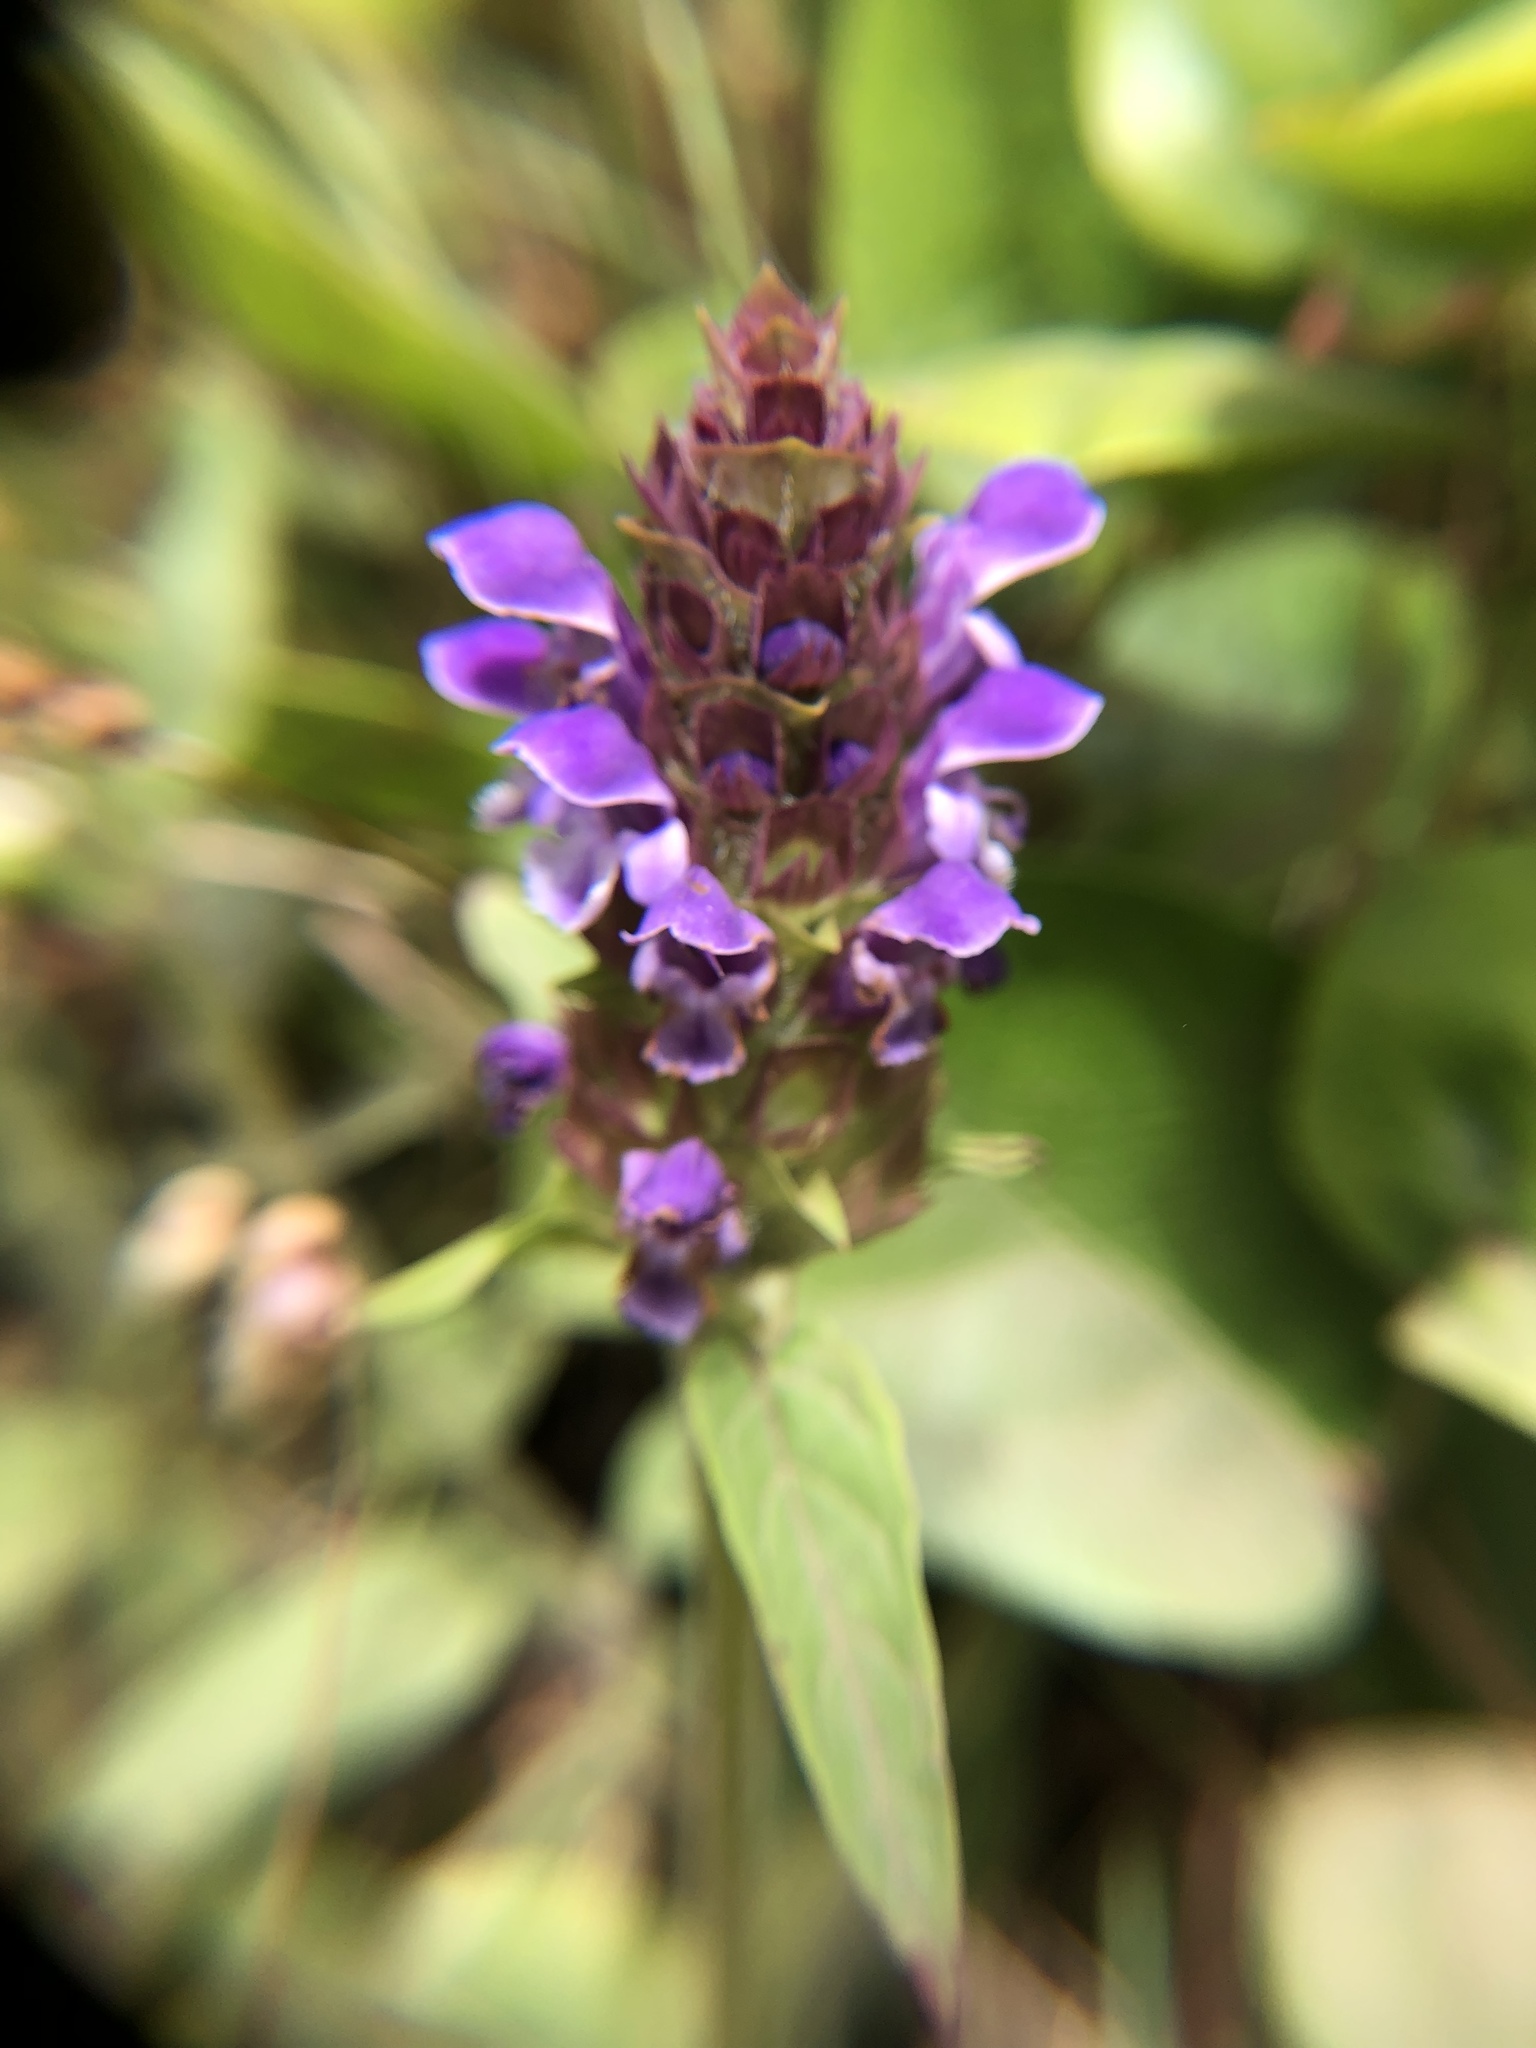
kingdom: Plantae
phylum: Tracheophyta
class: Magnoliopsida
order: Lamiales
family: Lamiaceae
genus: Prunella
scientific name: Prunella vulgaris
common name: Heal-all
